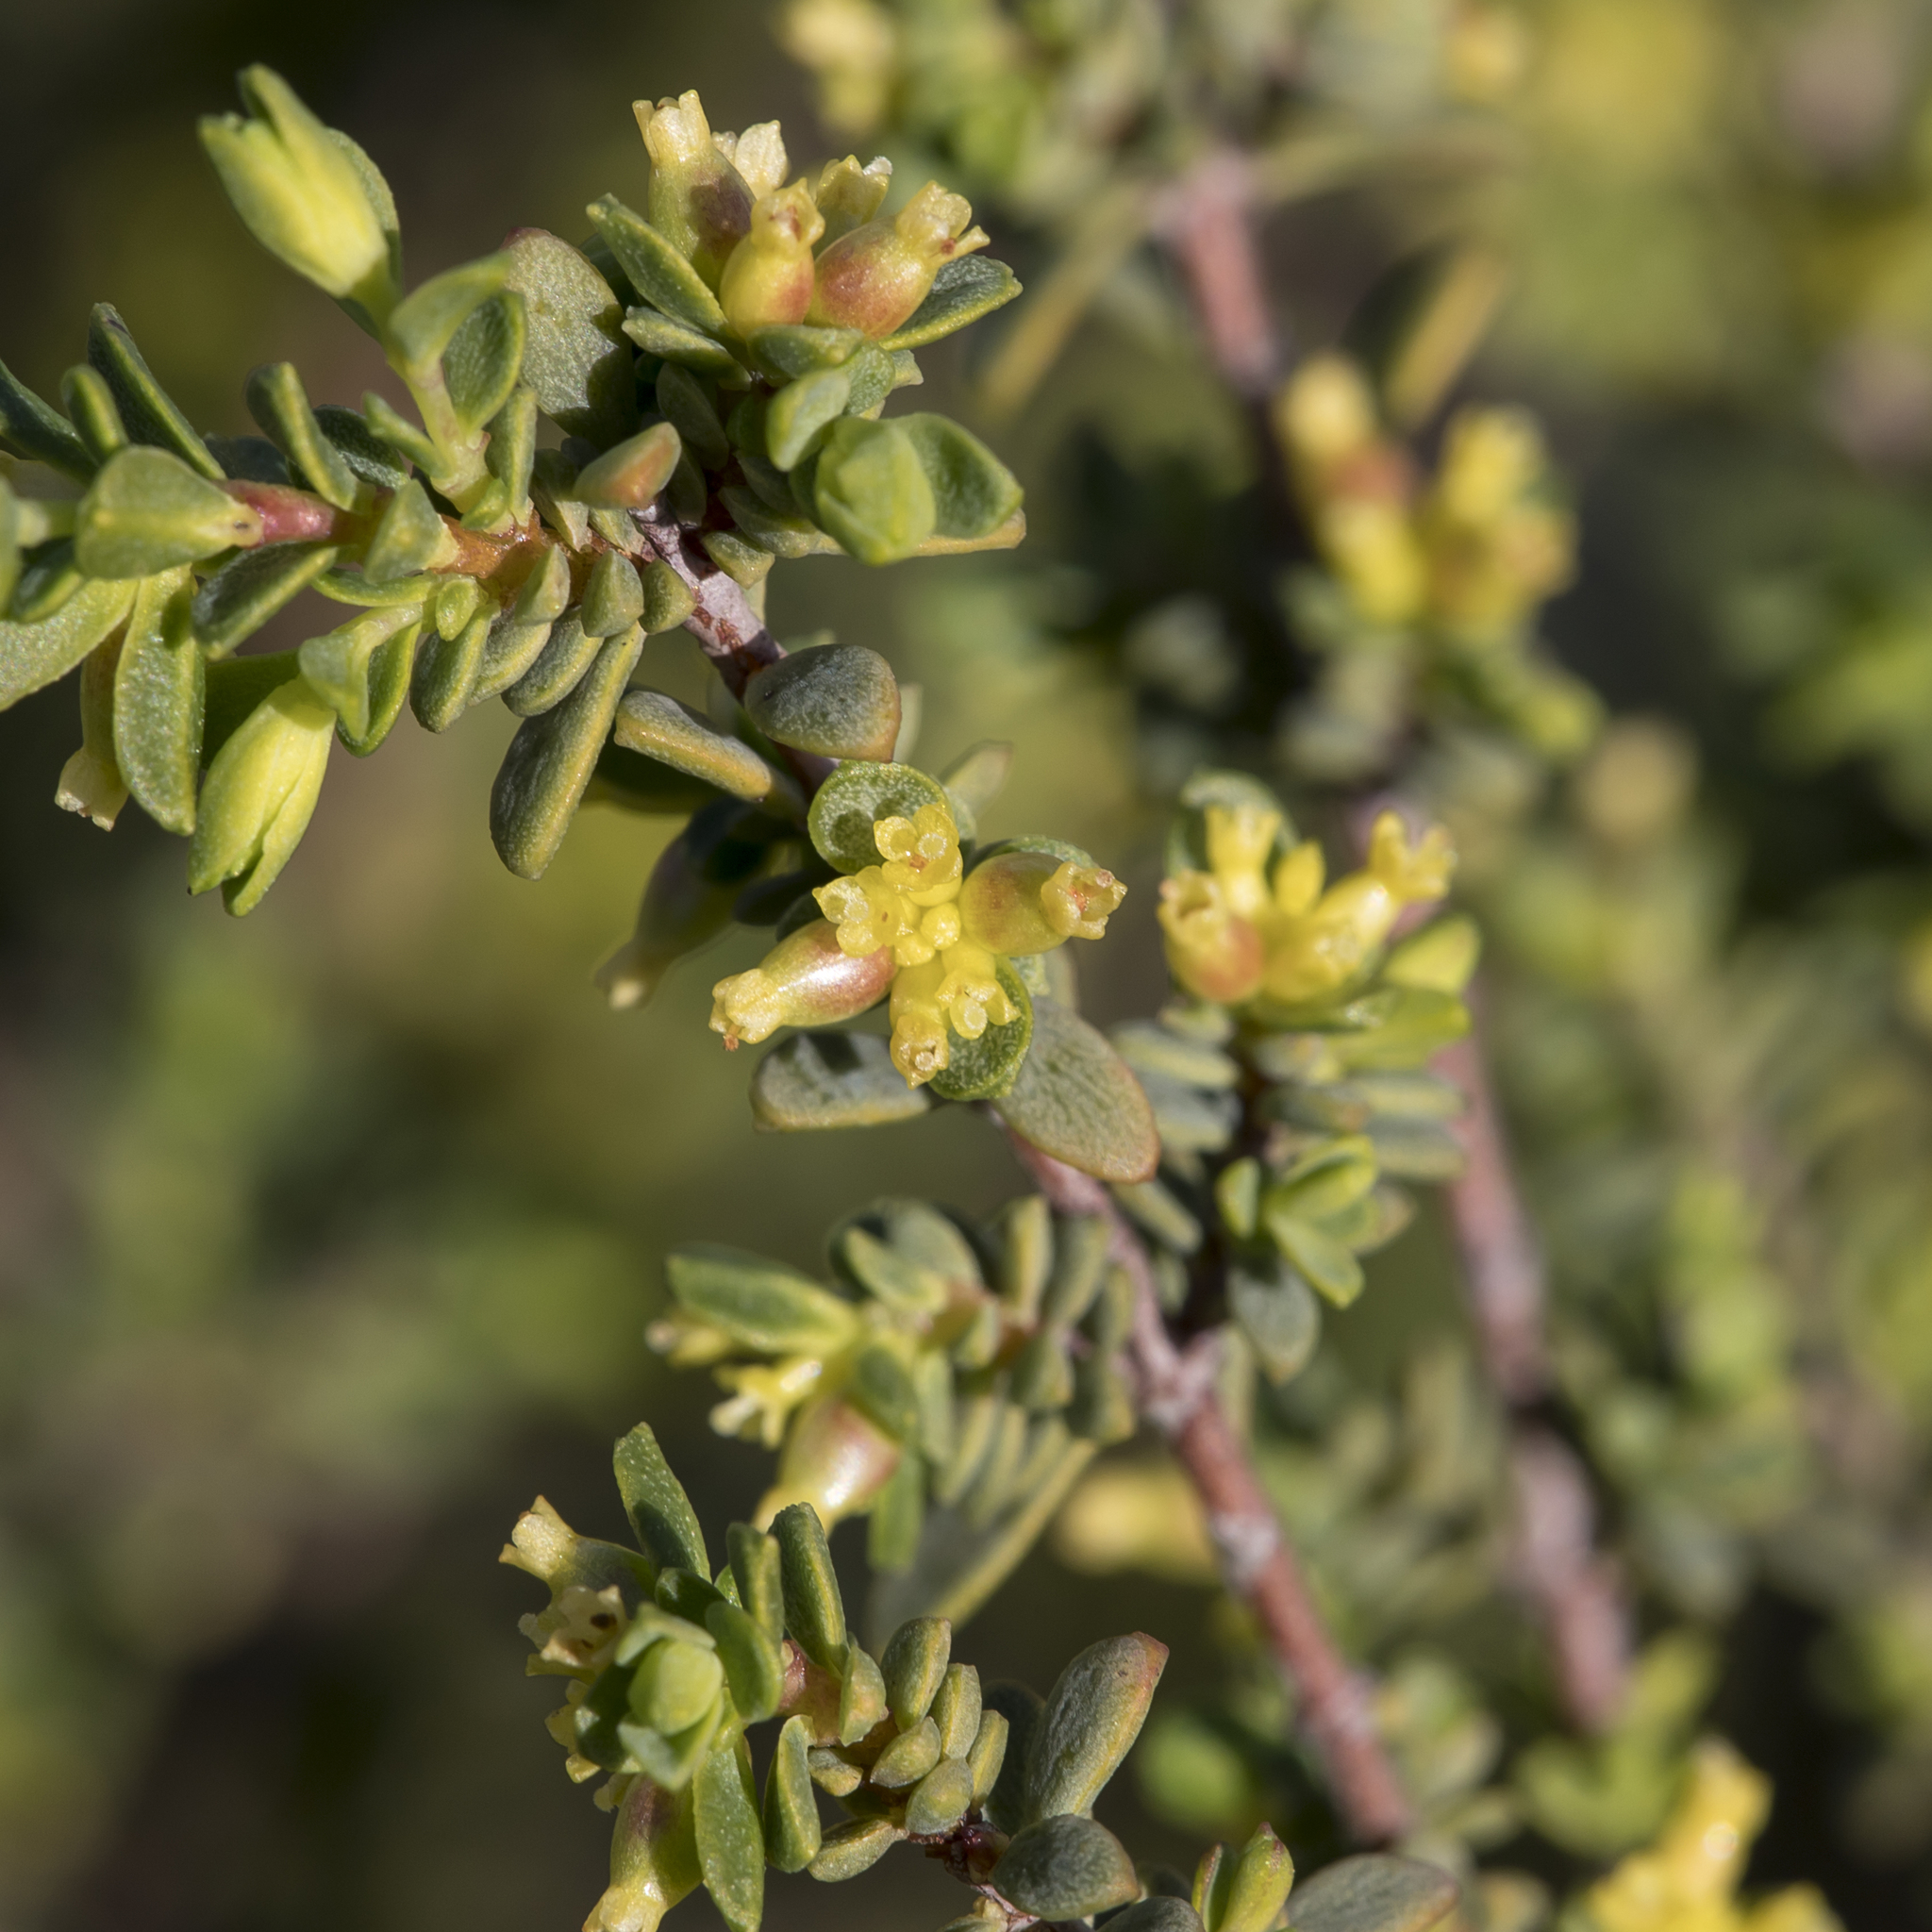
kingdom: Plantae
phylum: Tracheophyta
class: Magnoliopsida
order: Malvales
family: Thymelaeaceae
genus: Pimelea
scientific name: Pimelea serpyllifolia
